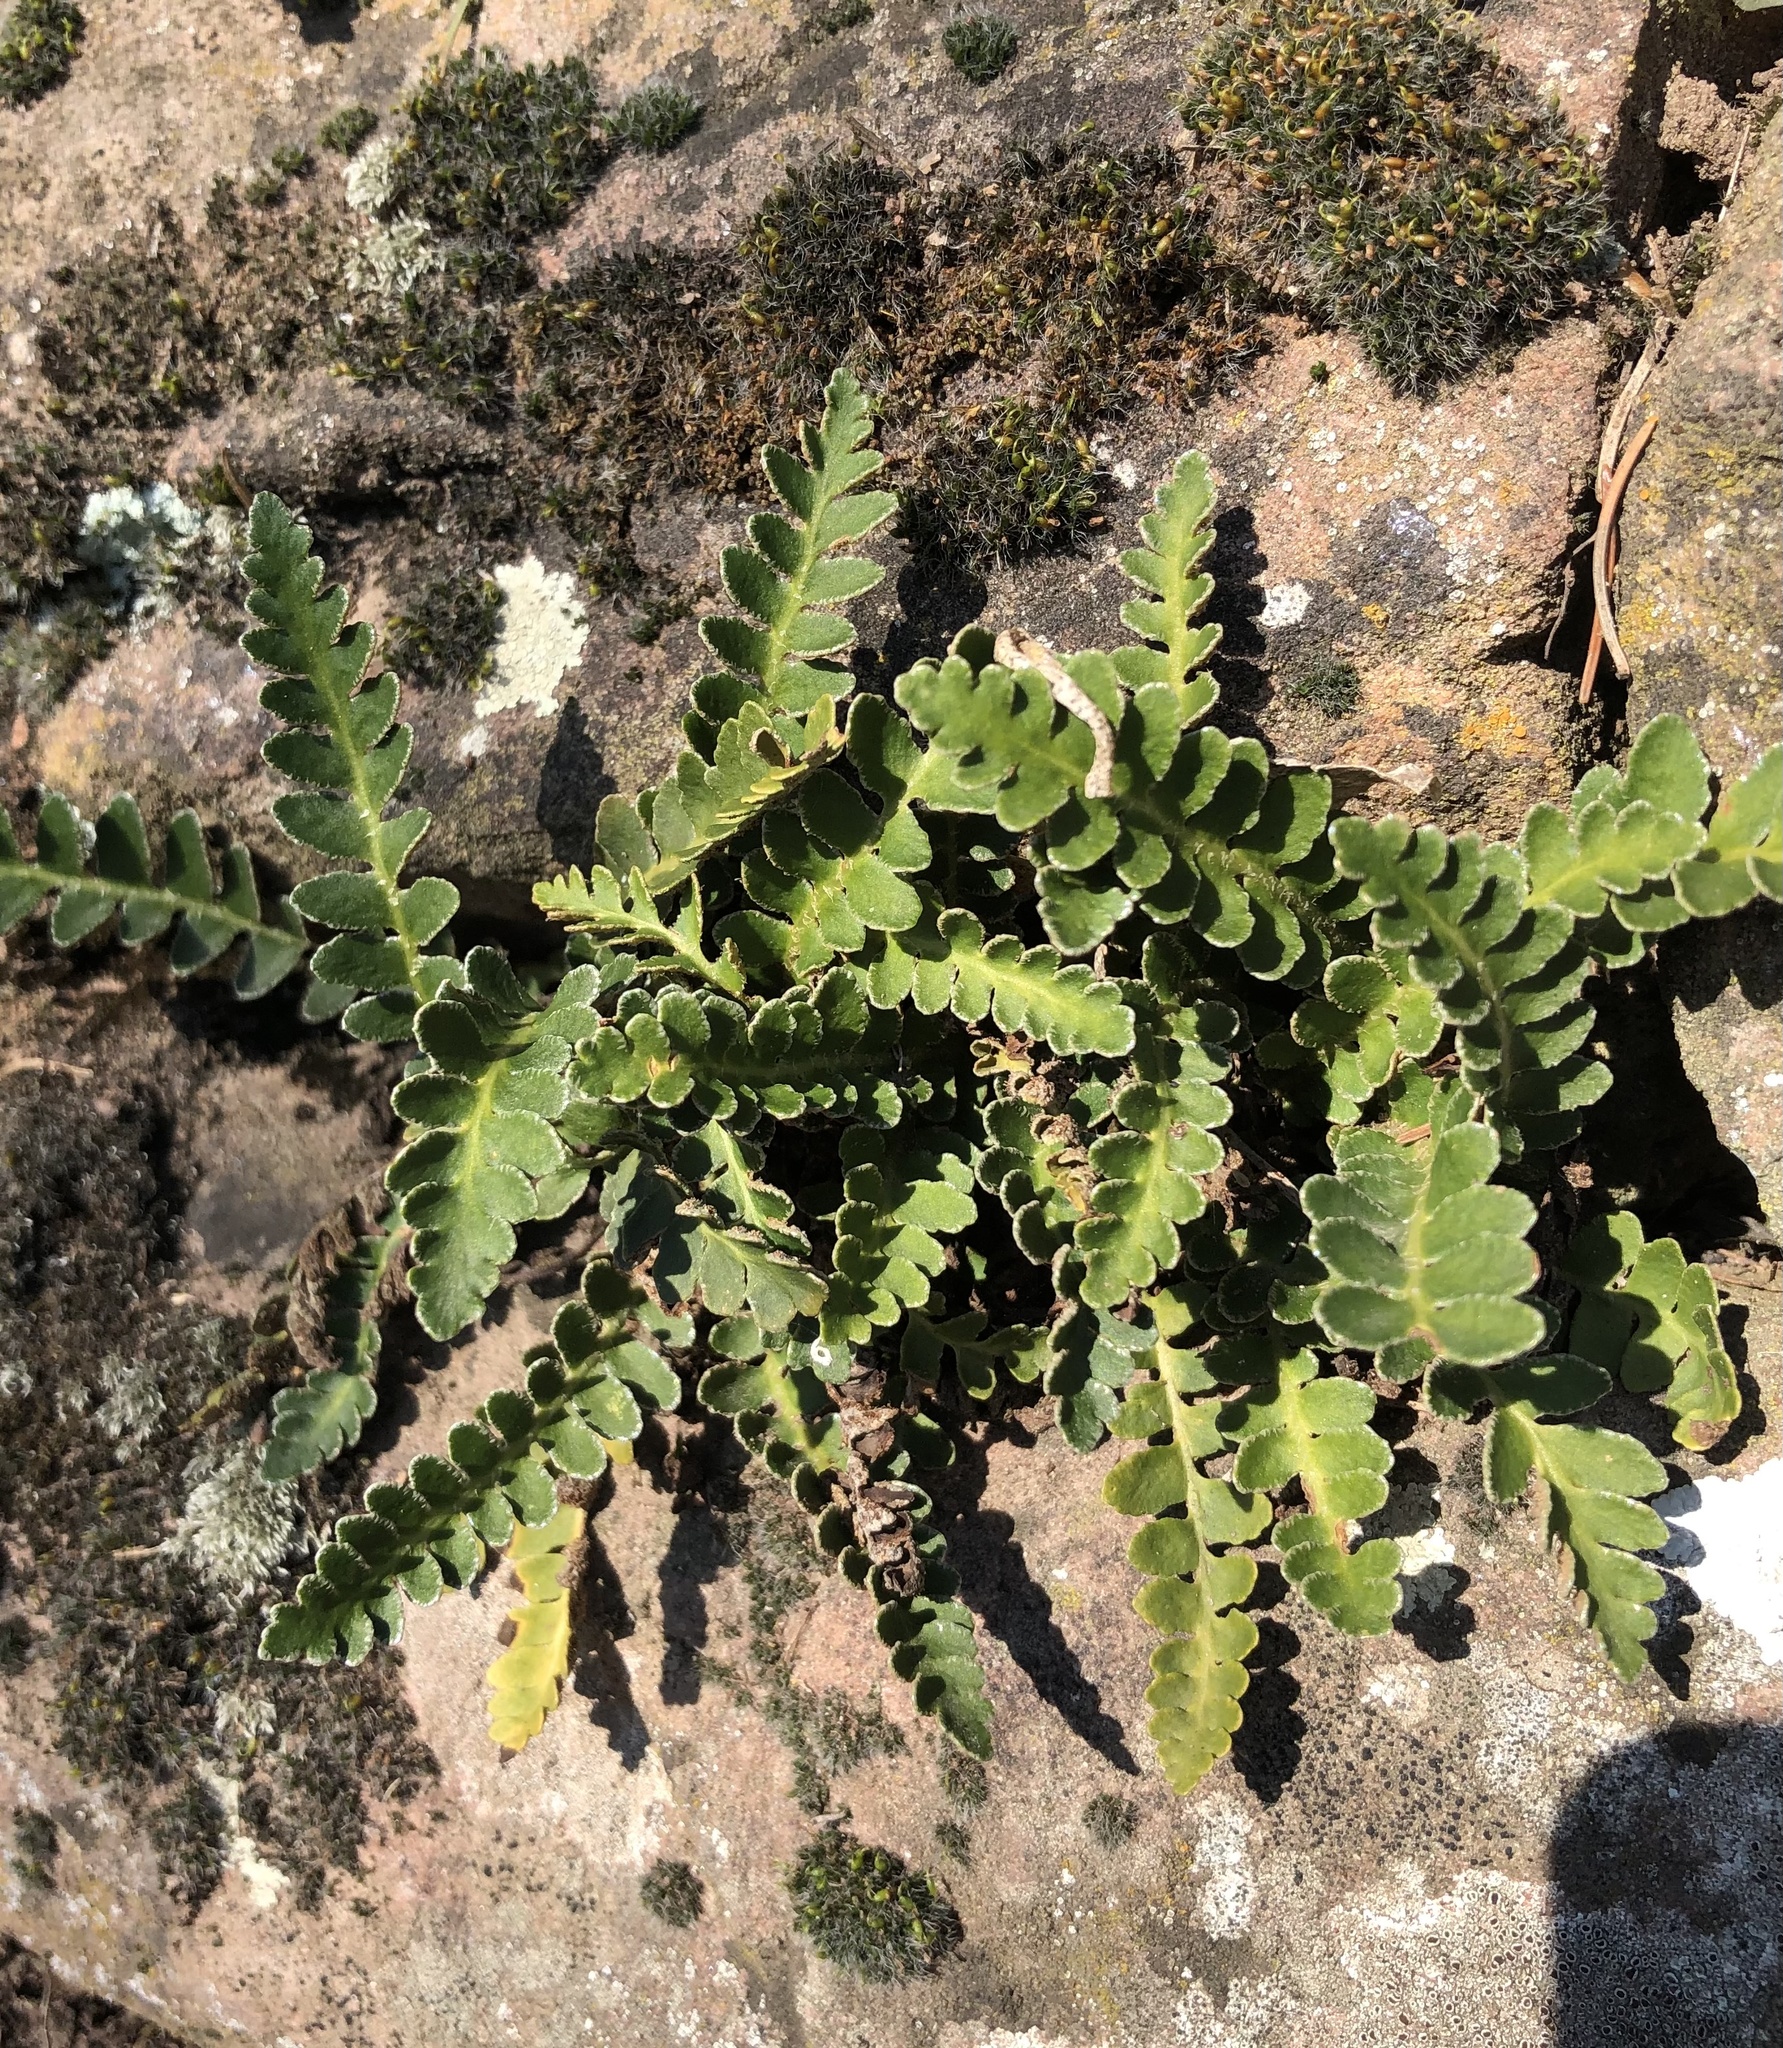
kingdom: Plantae
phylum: Tracheophyta
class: Polypodiopsida
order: Polypodiales
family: Aspleniaceae
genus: Asplenium
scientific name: Asplenium ceterach
